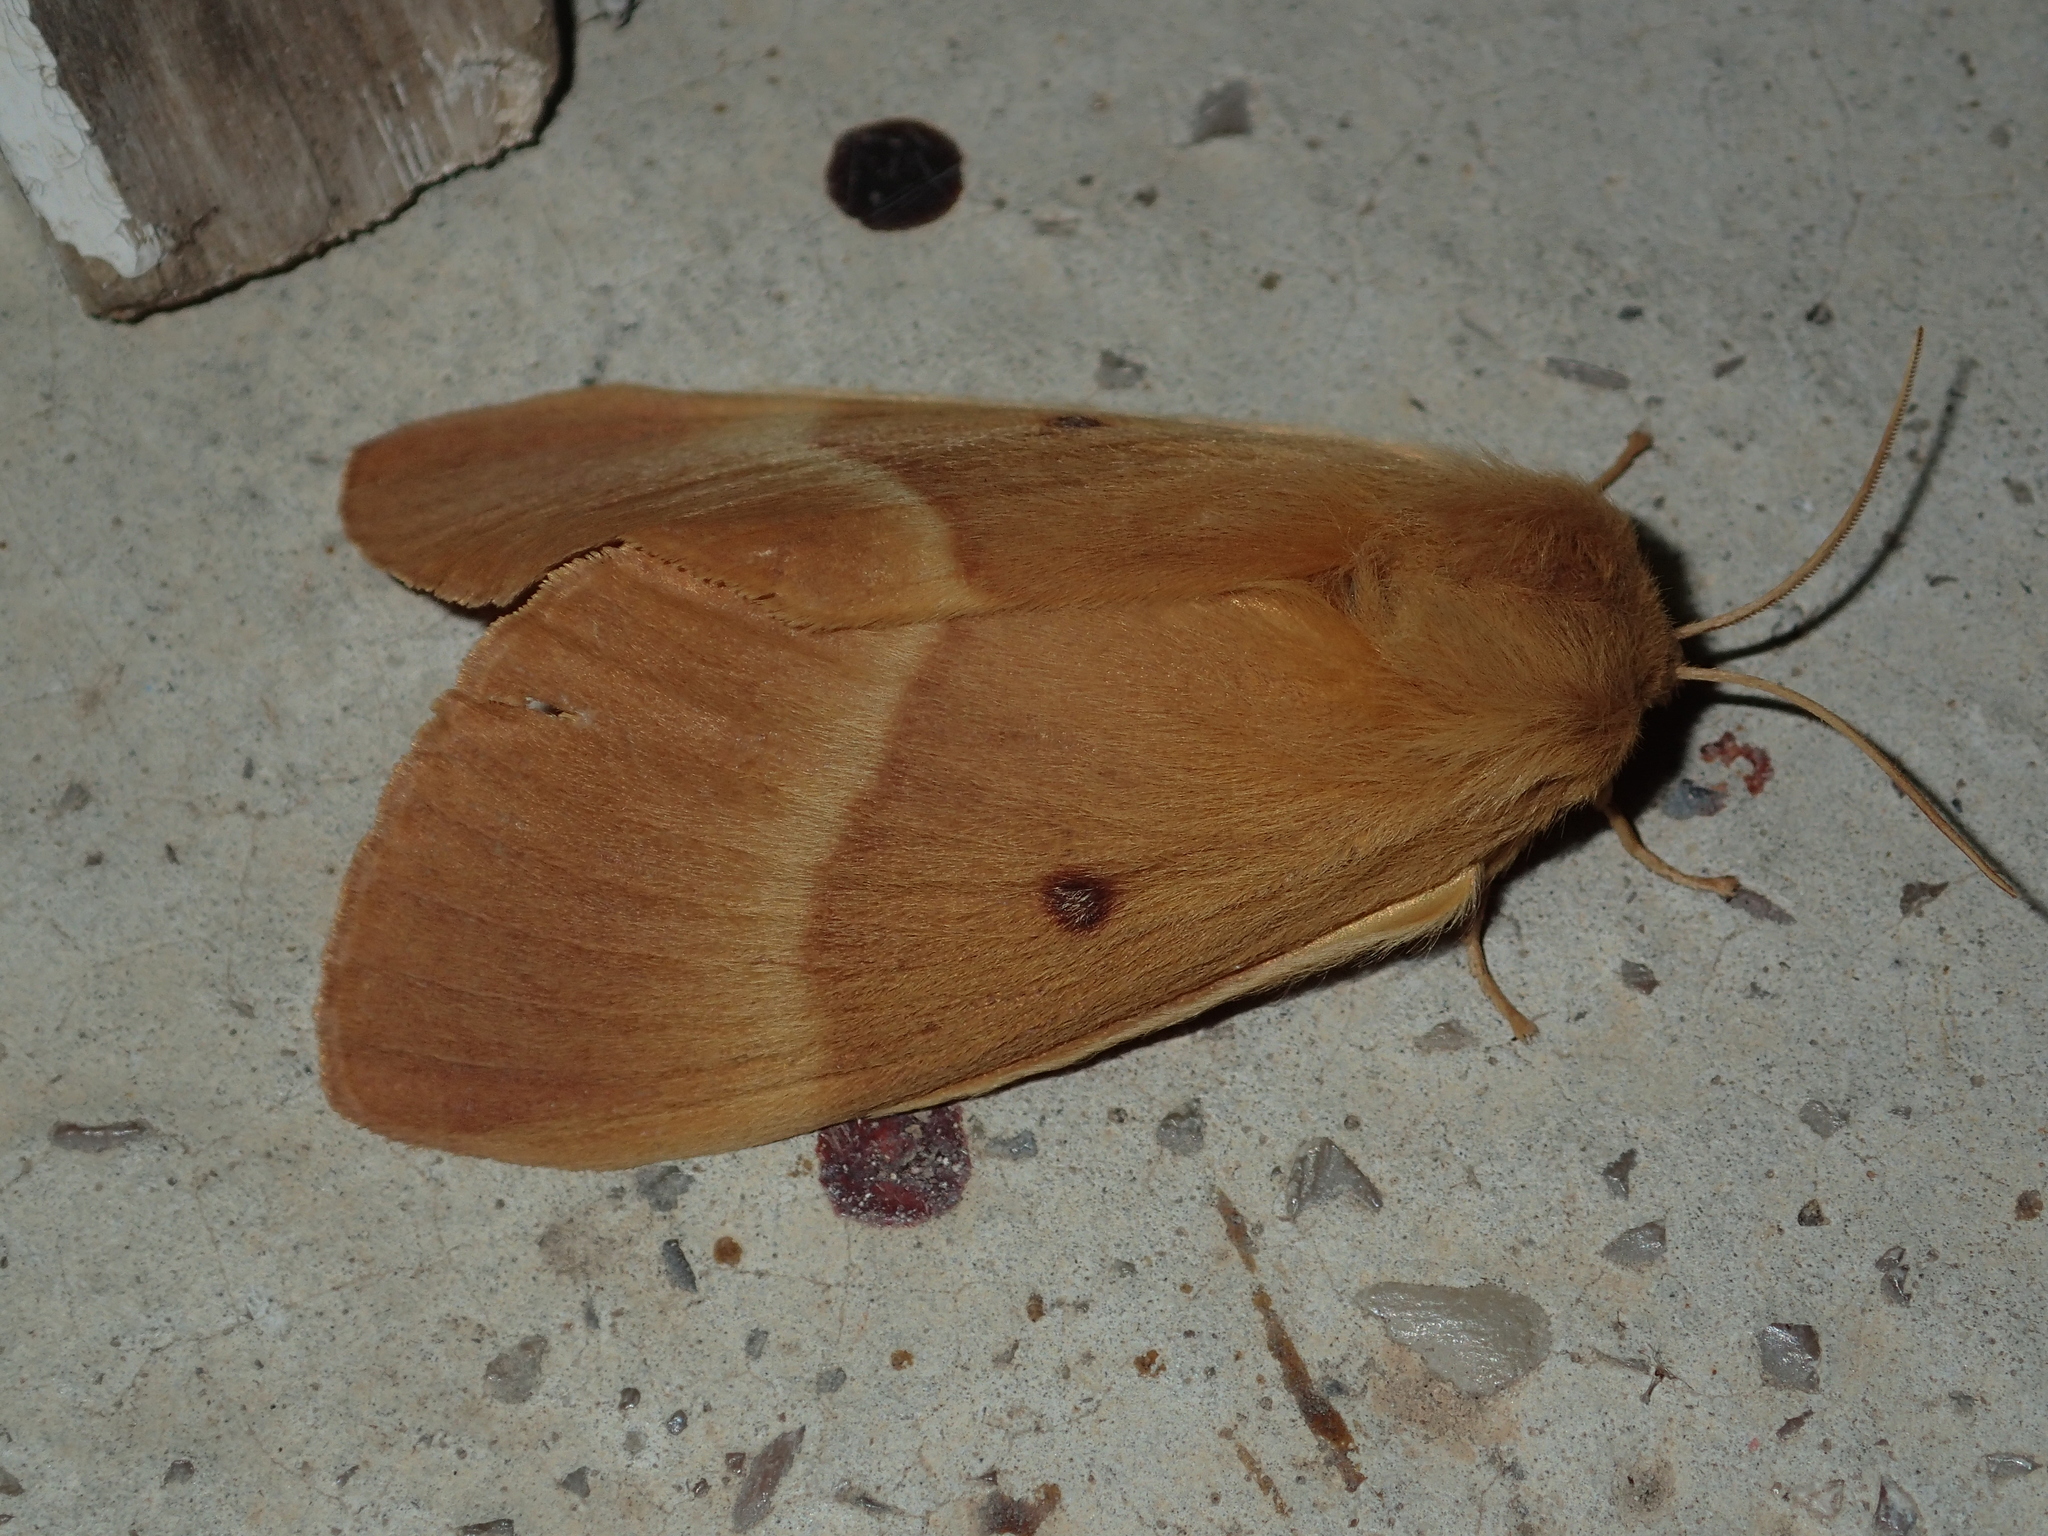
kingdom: Animalia
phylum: Arthropoda
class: Insecta
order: Lepidoptera
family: Lasiocampidae
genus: Lasiocampa
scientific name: Lasiocampa quercus
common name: Oak eggar
